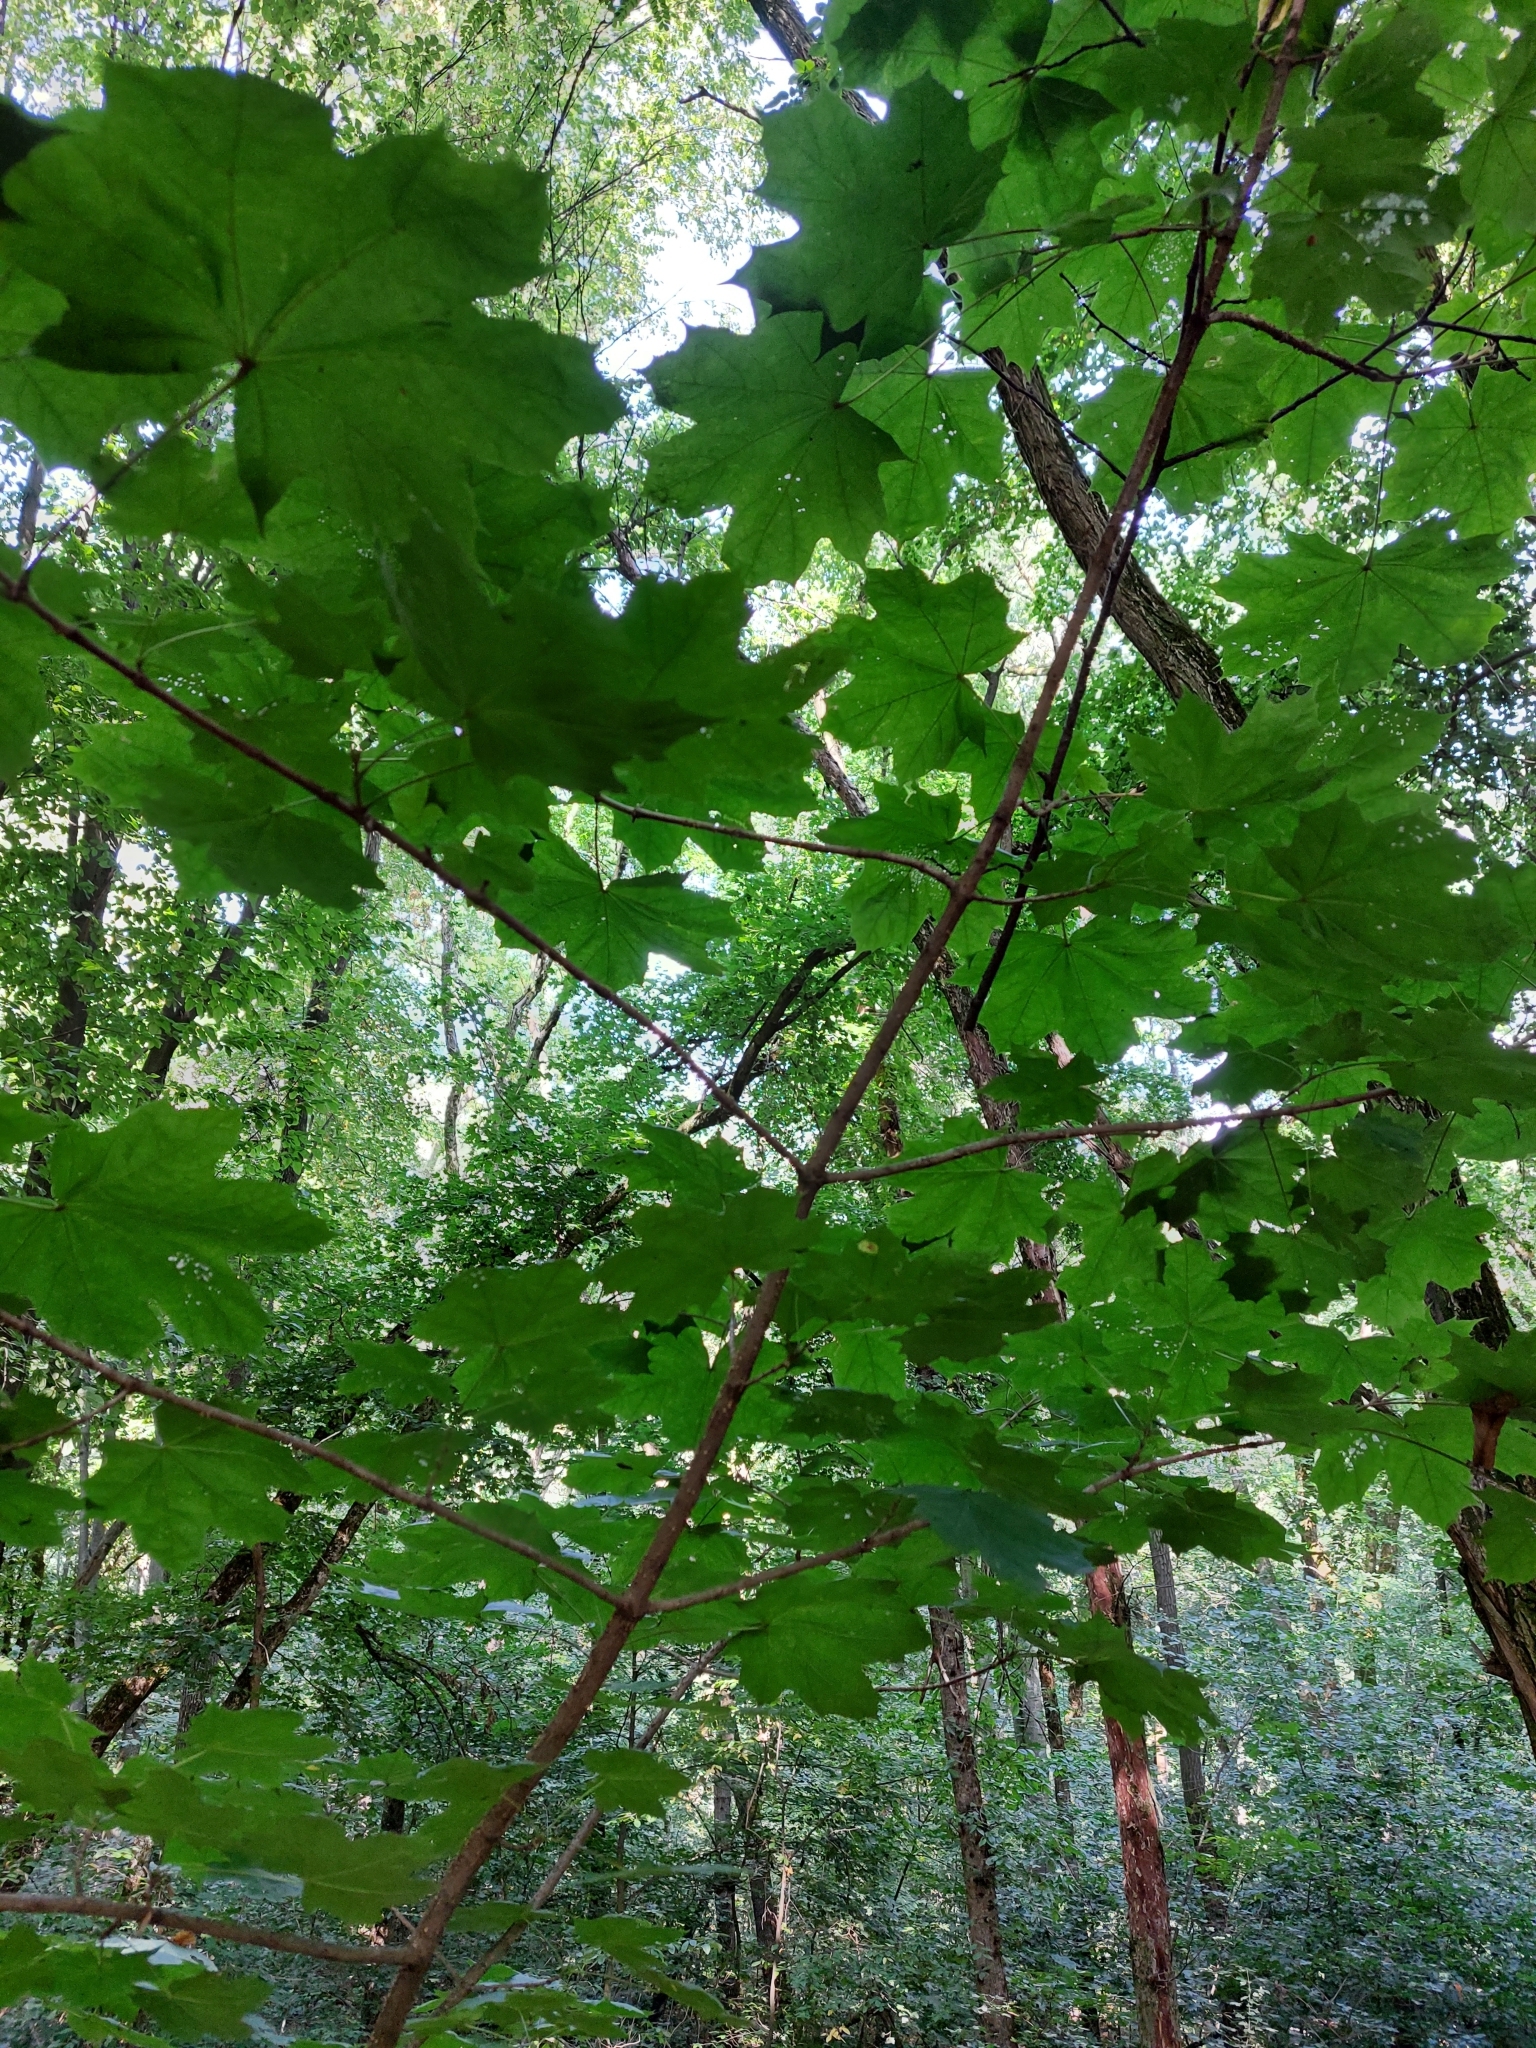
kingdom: Plantae
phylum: Tracheophyta
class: Magnoliopsida
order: Sapindales
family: Sapindaceae
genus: Acer
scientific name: Acer platanoides
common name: Norway maple
